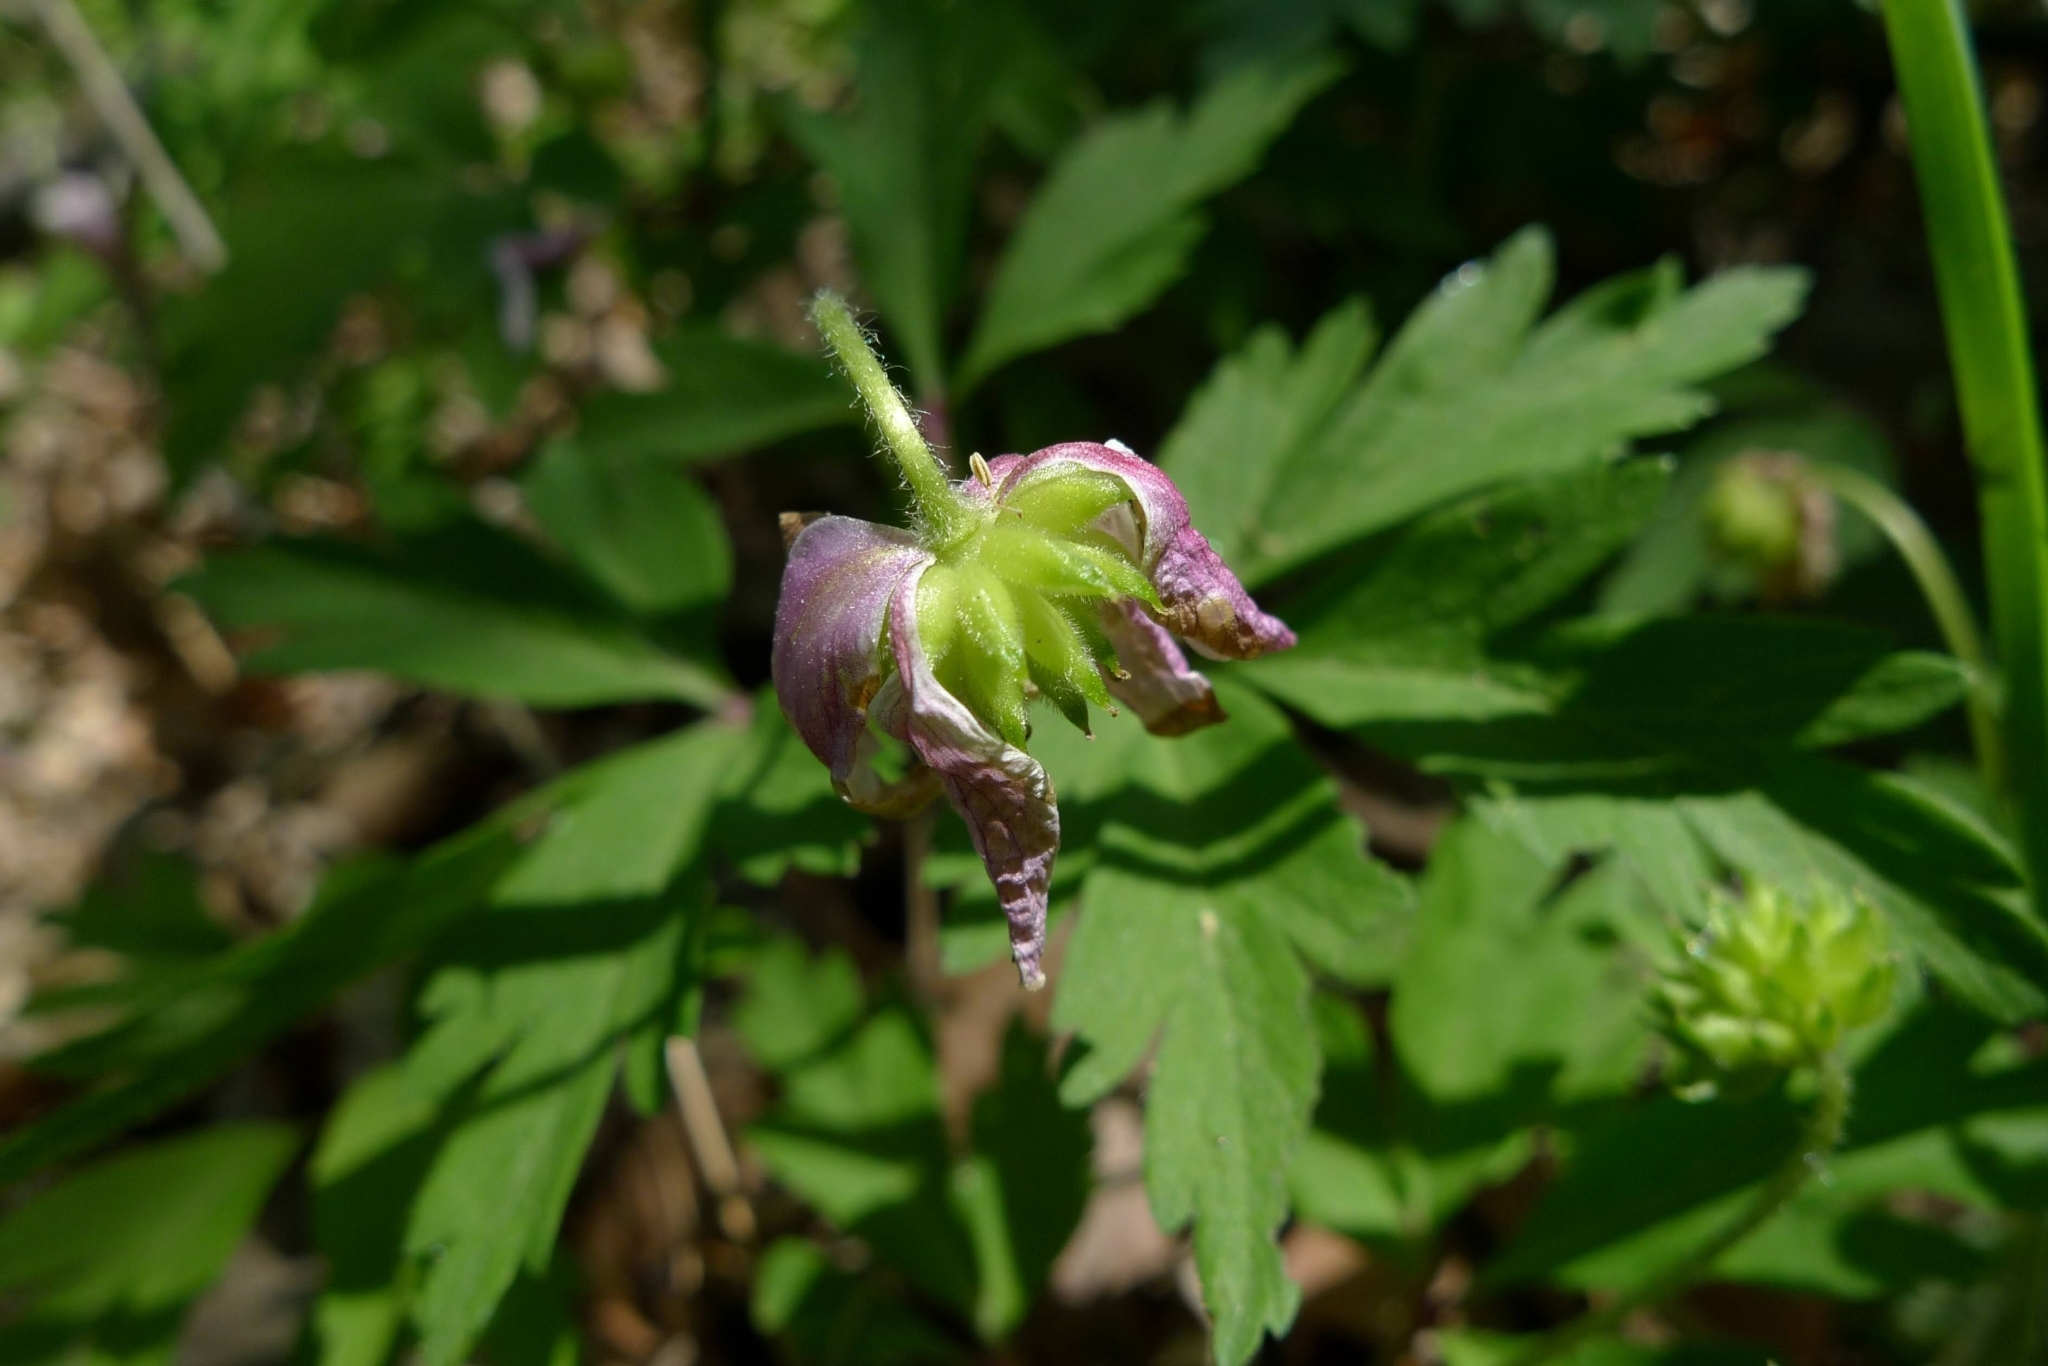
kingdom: Plantae
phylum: Tracheophyta
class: Magnoliopsida
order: Ranunculales
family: Ranunculaceae
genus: Anemone
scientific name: Anemone nemorosa
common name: Wood anemone
